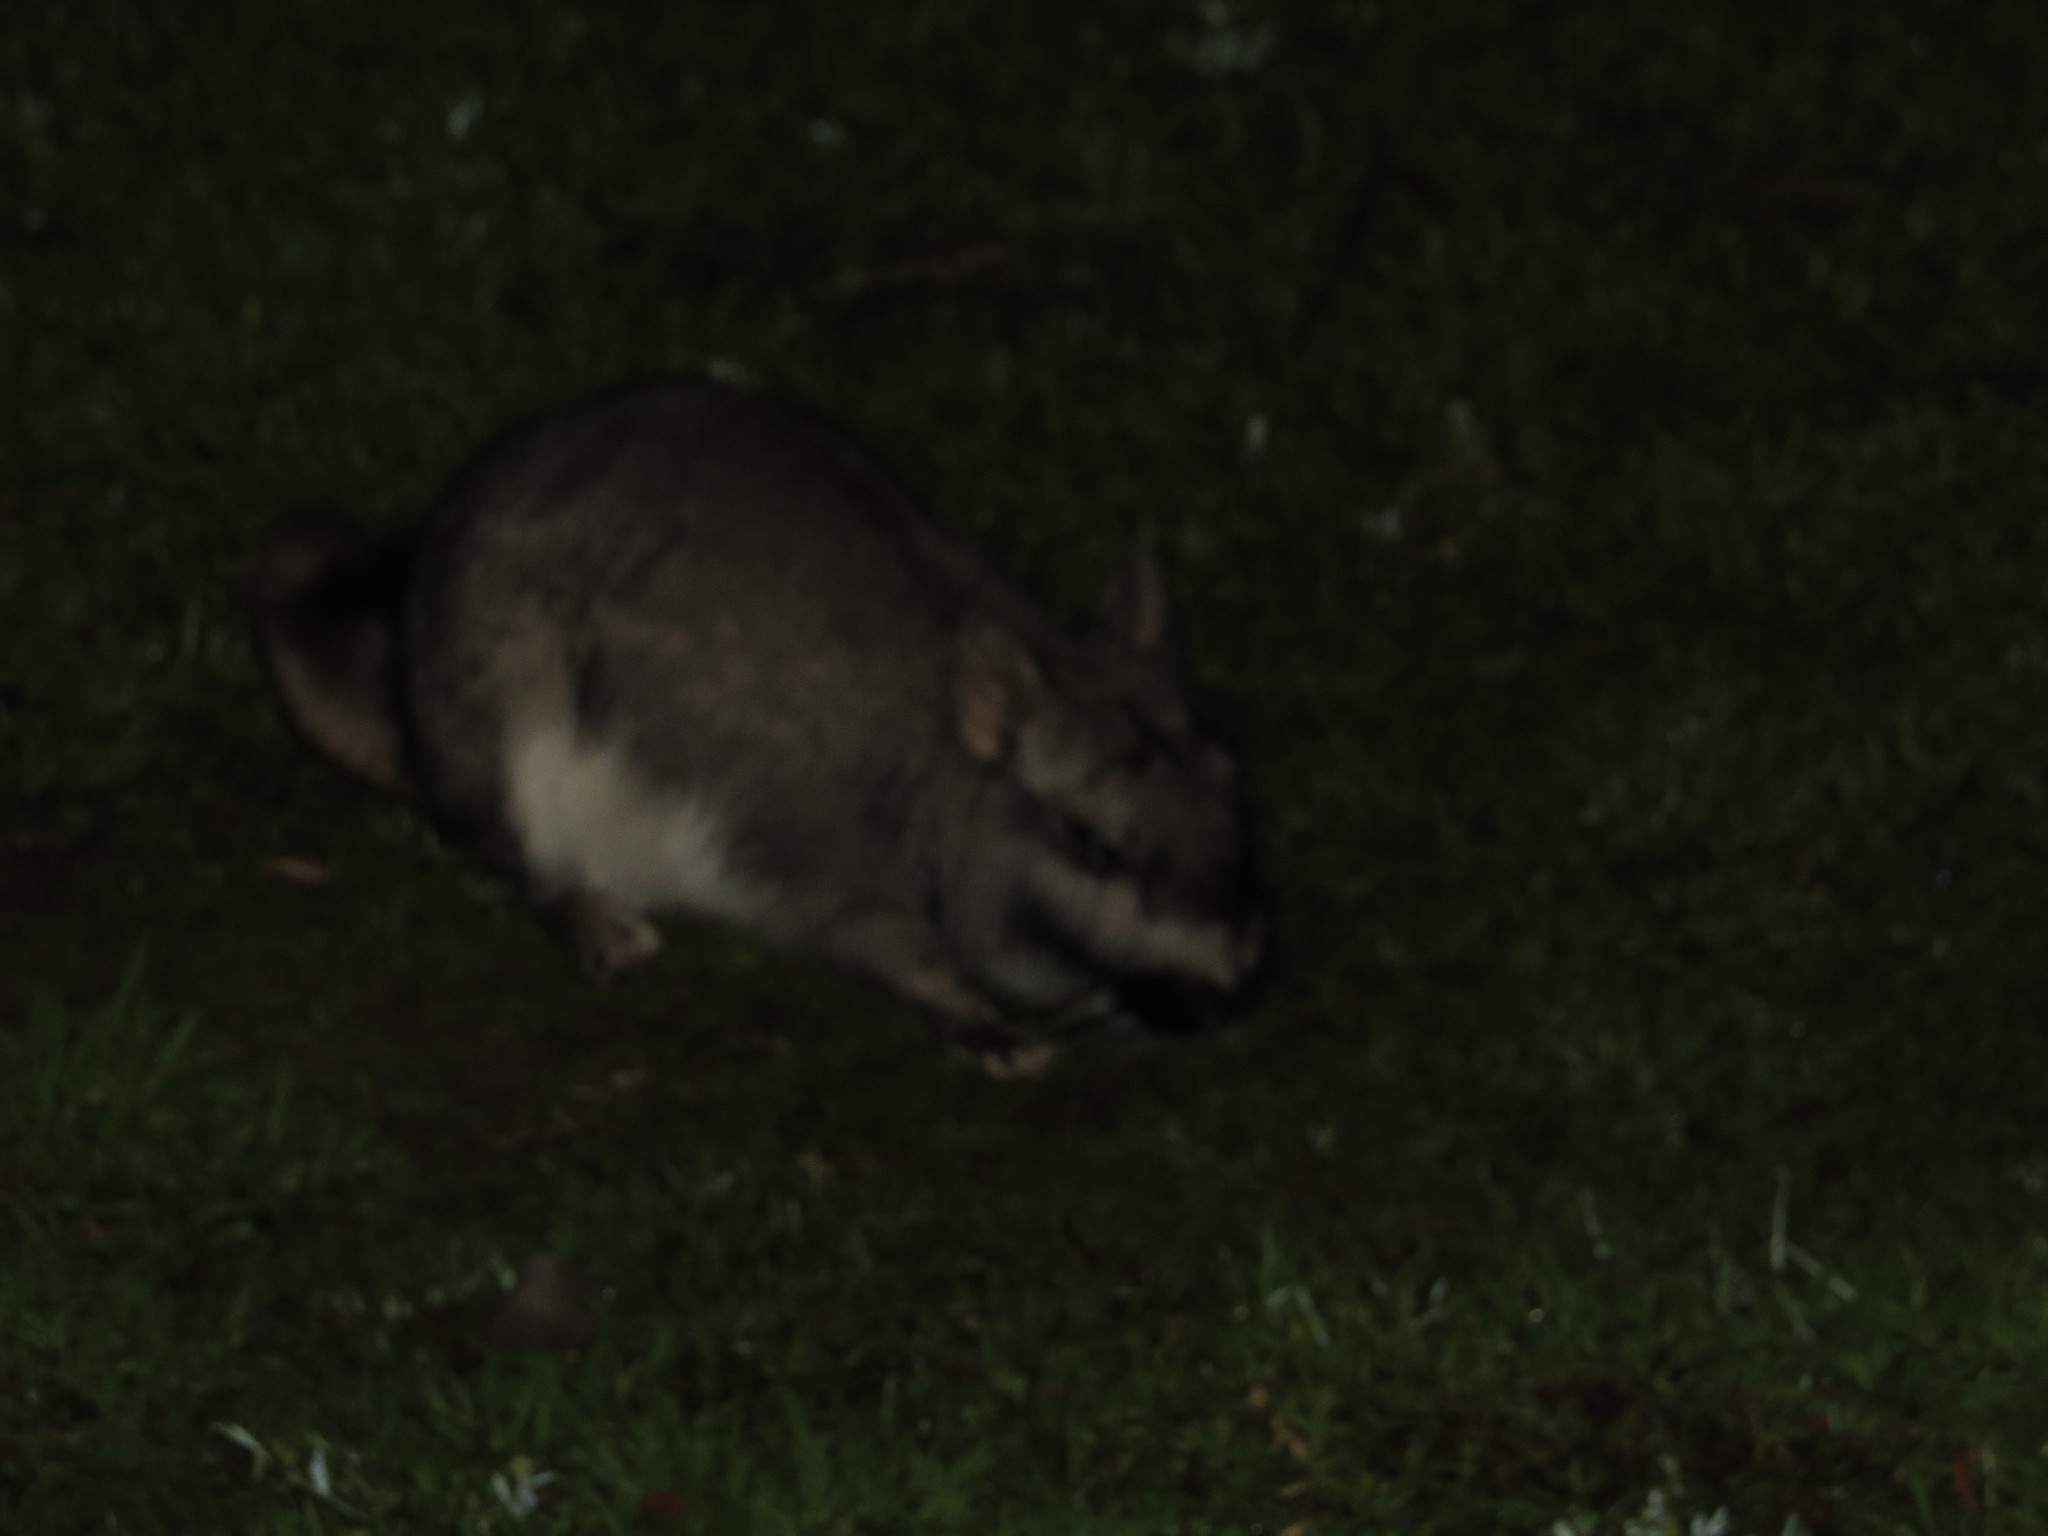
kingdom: Animalia
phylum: Chordata
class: Mammalia
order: Rodentia
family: Chinchillidae
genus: Lagostomus
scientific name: Lagostomus maximus
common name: Plains viscacha
